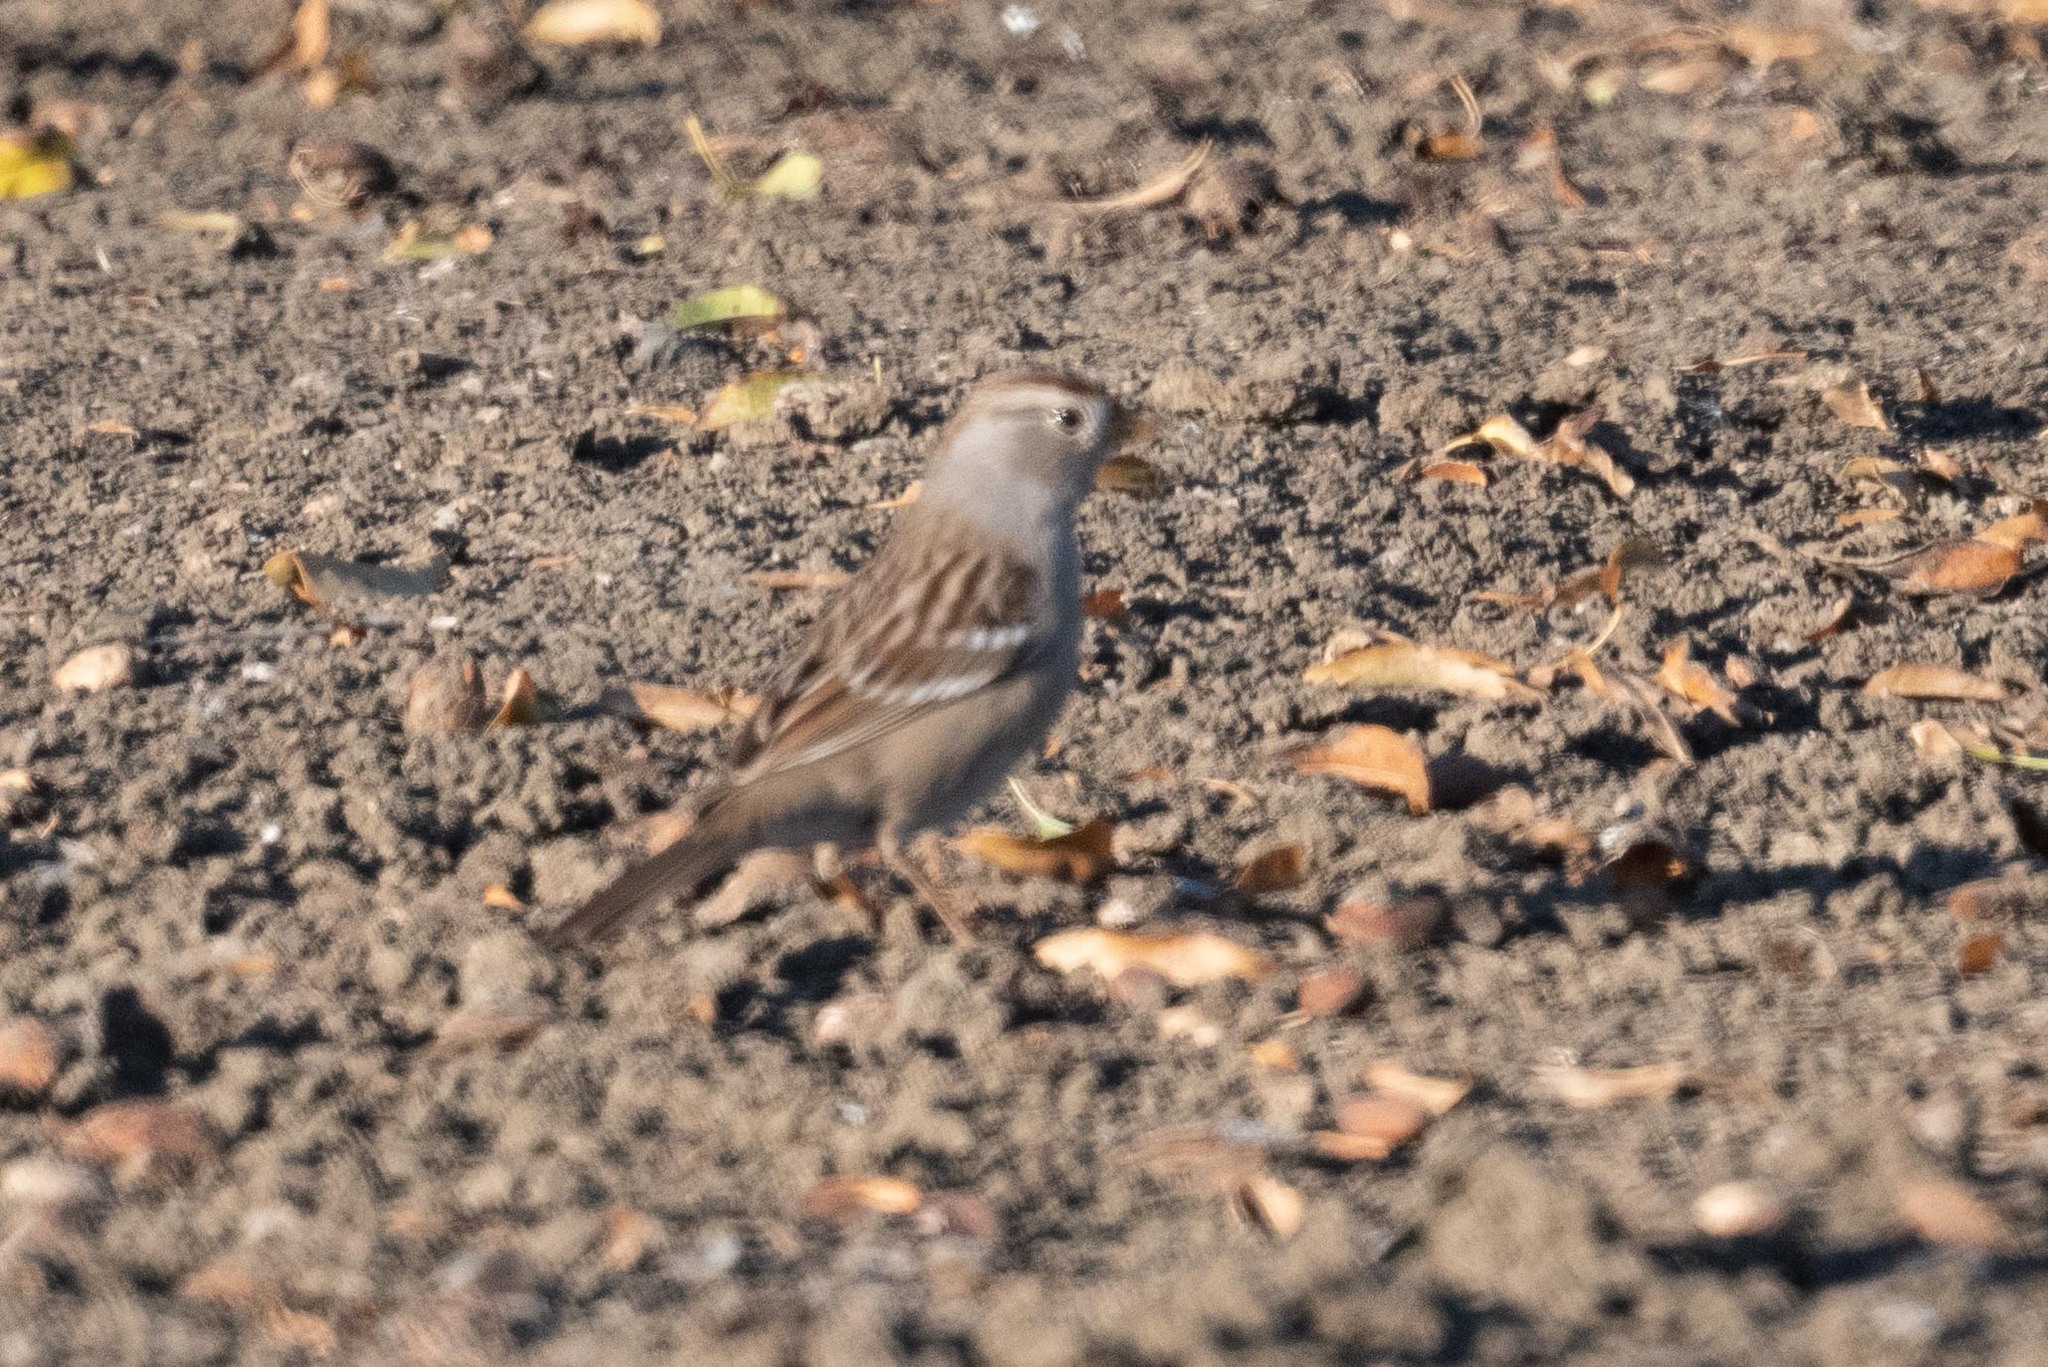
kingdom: Animalia
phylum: Chordata
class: Aves
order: Passeriformes
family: Passerellidae
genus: Zonotrichia
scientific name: Zonotrichia leucophrys
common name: White-crowned sparrow
